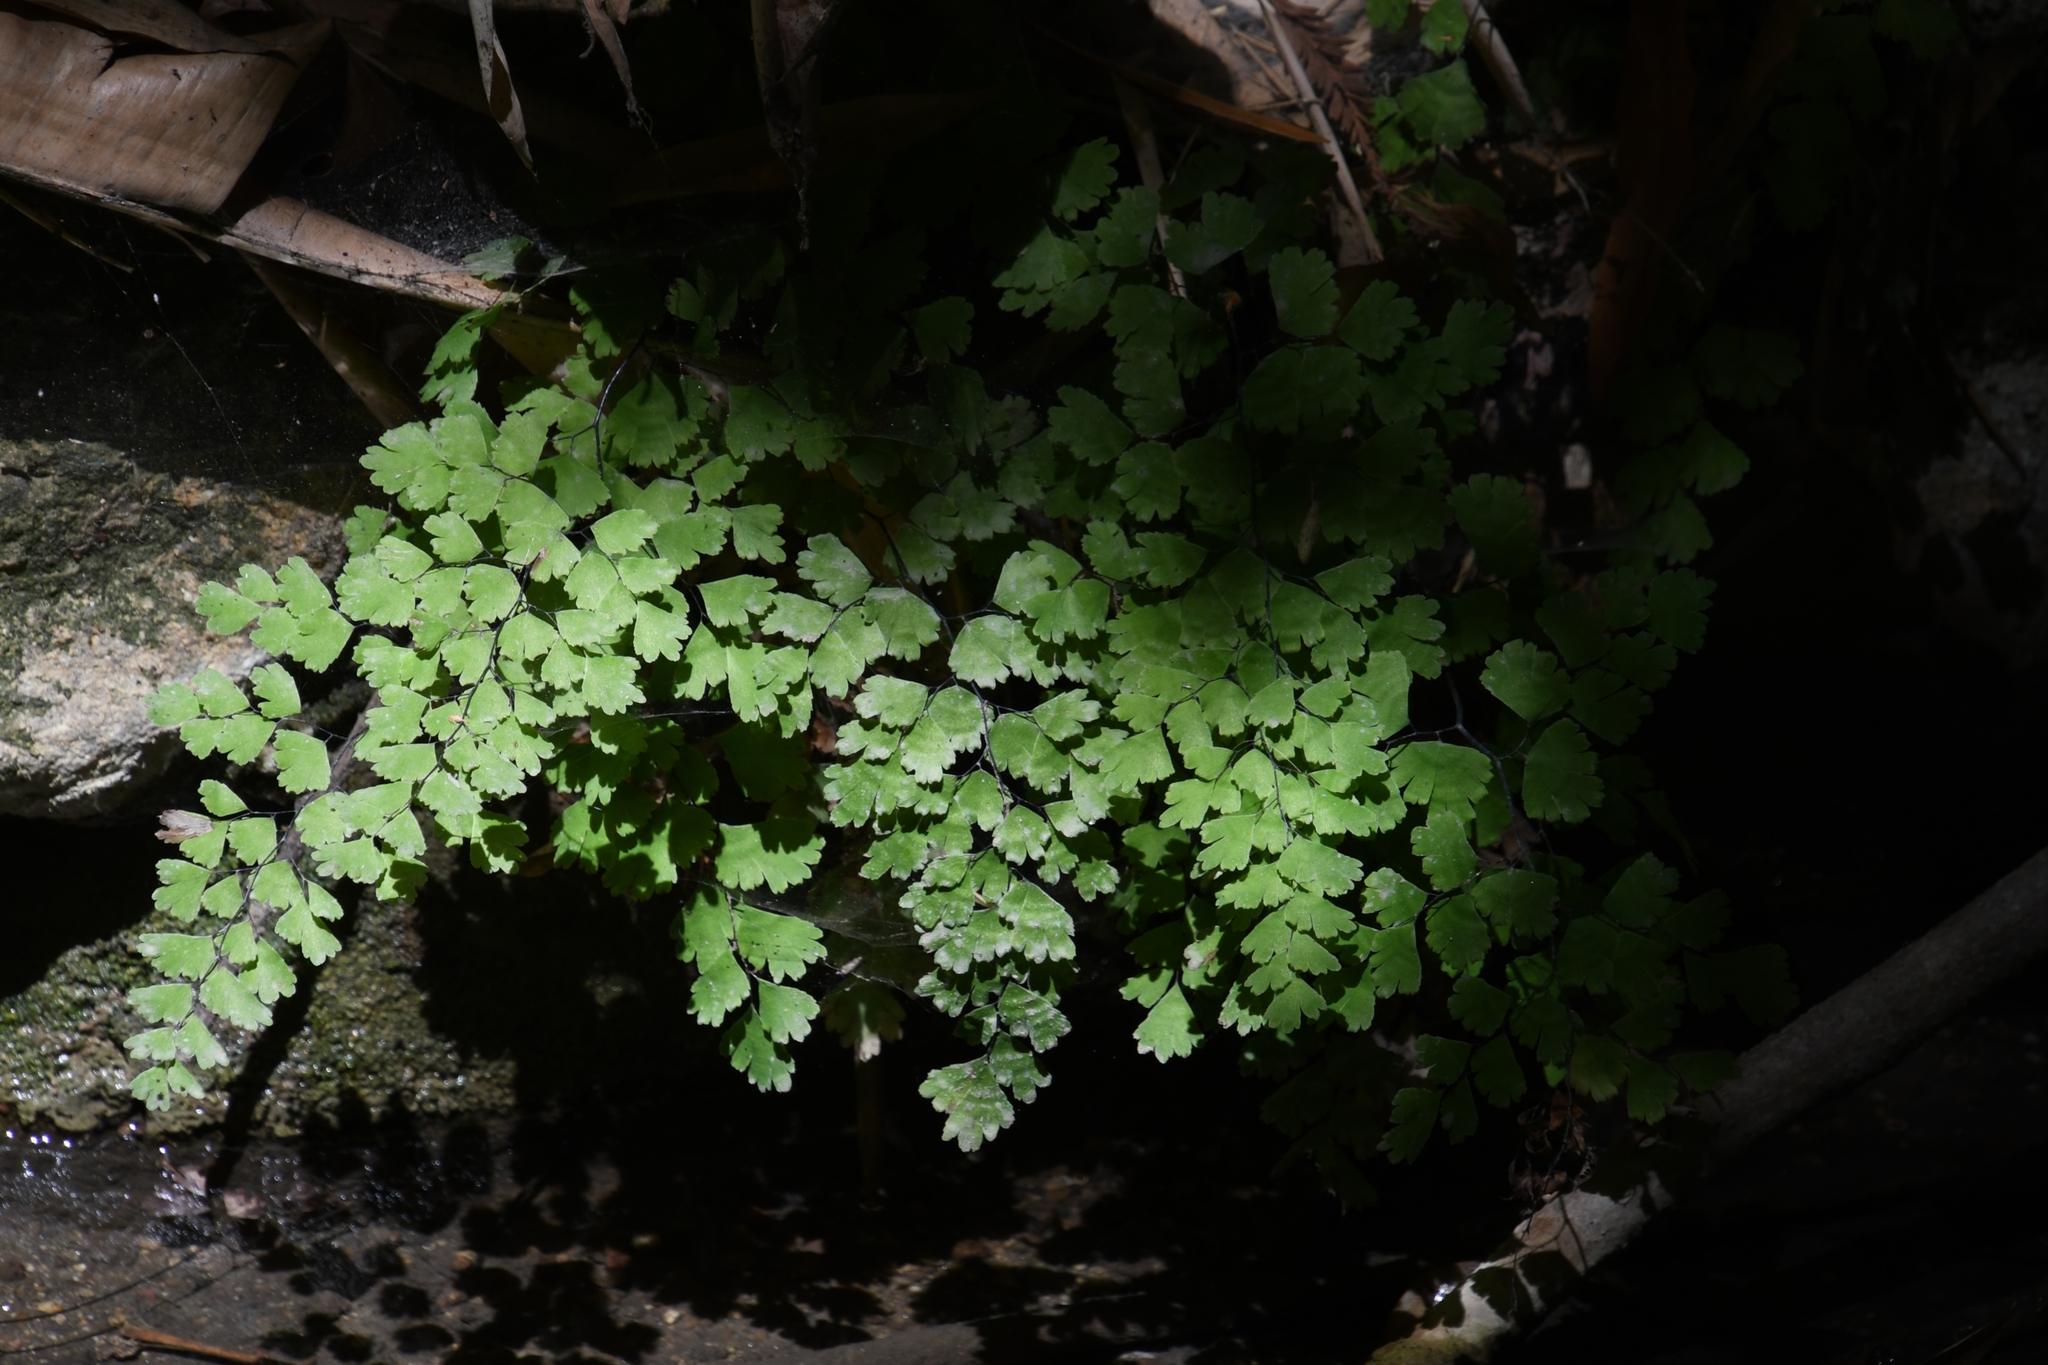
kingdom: Plantae
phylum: Tracheophyta
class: Polypodiopsida
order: Polypodiales
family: Pteridaceae
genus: Adiantum
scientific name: Adiantum capillus-veneris
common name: Maidenhair fern
